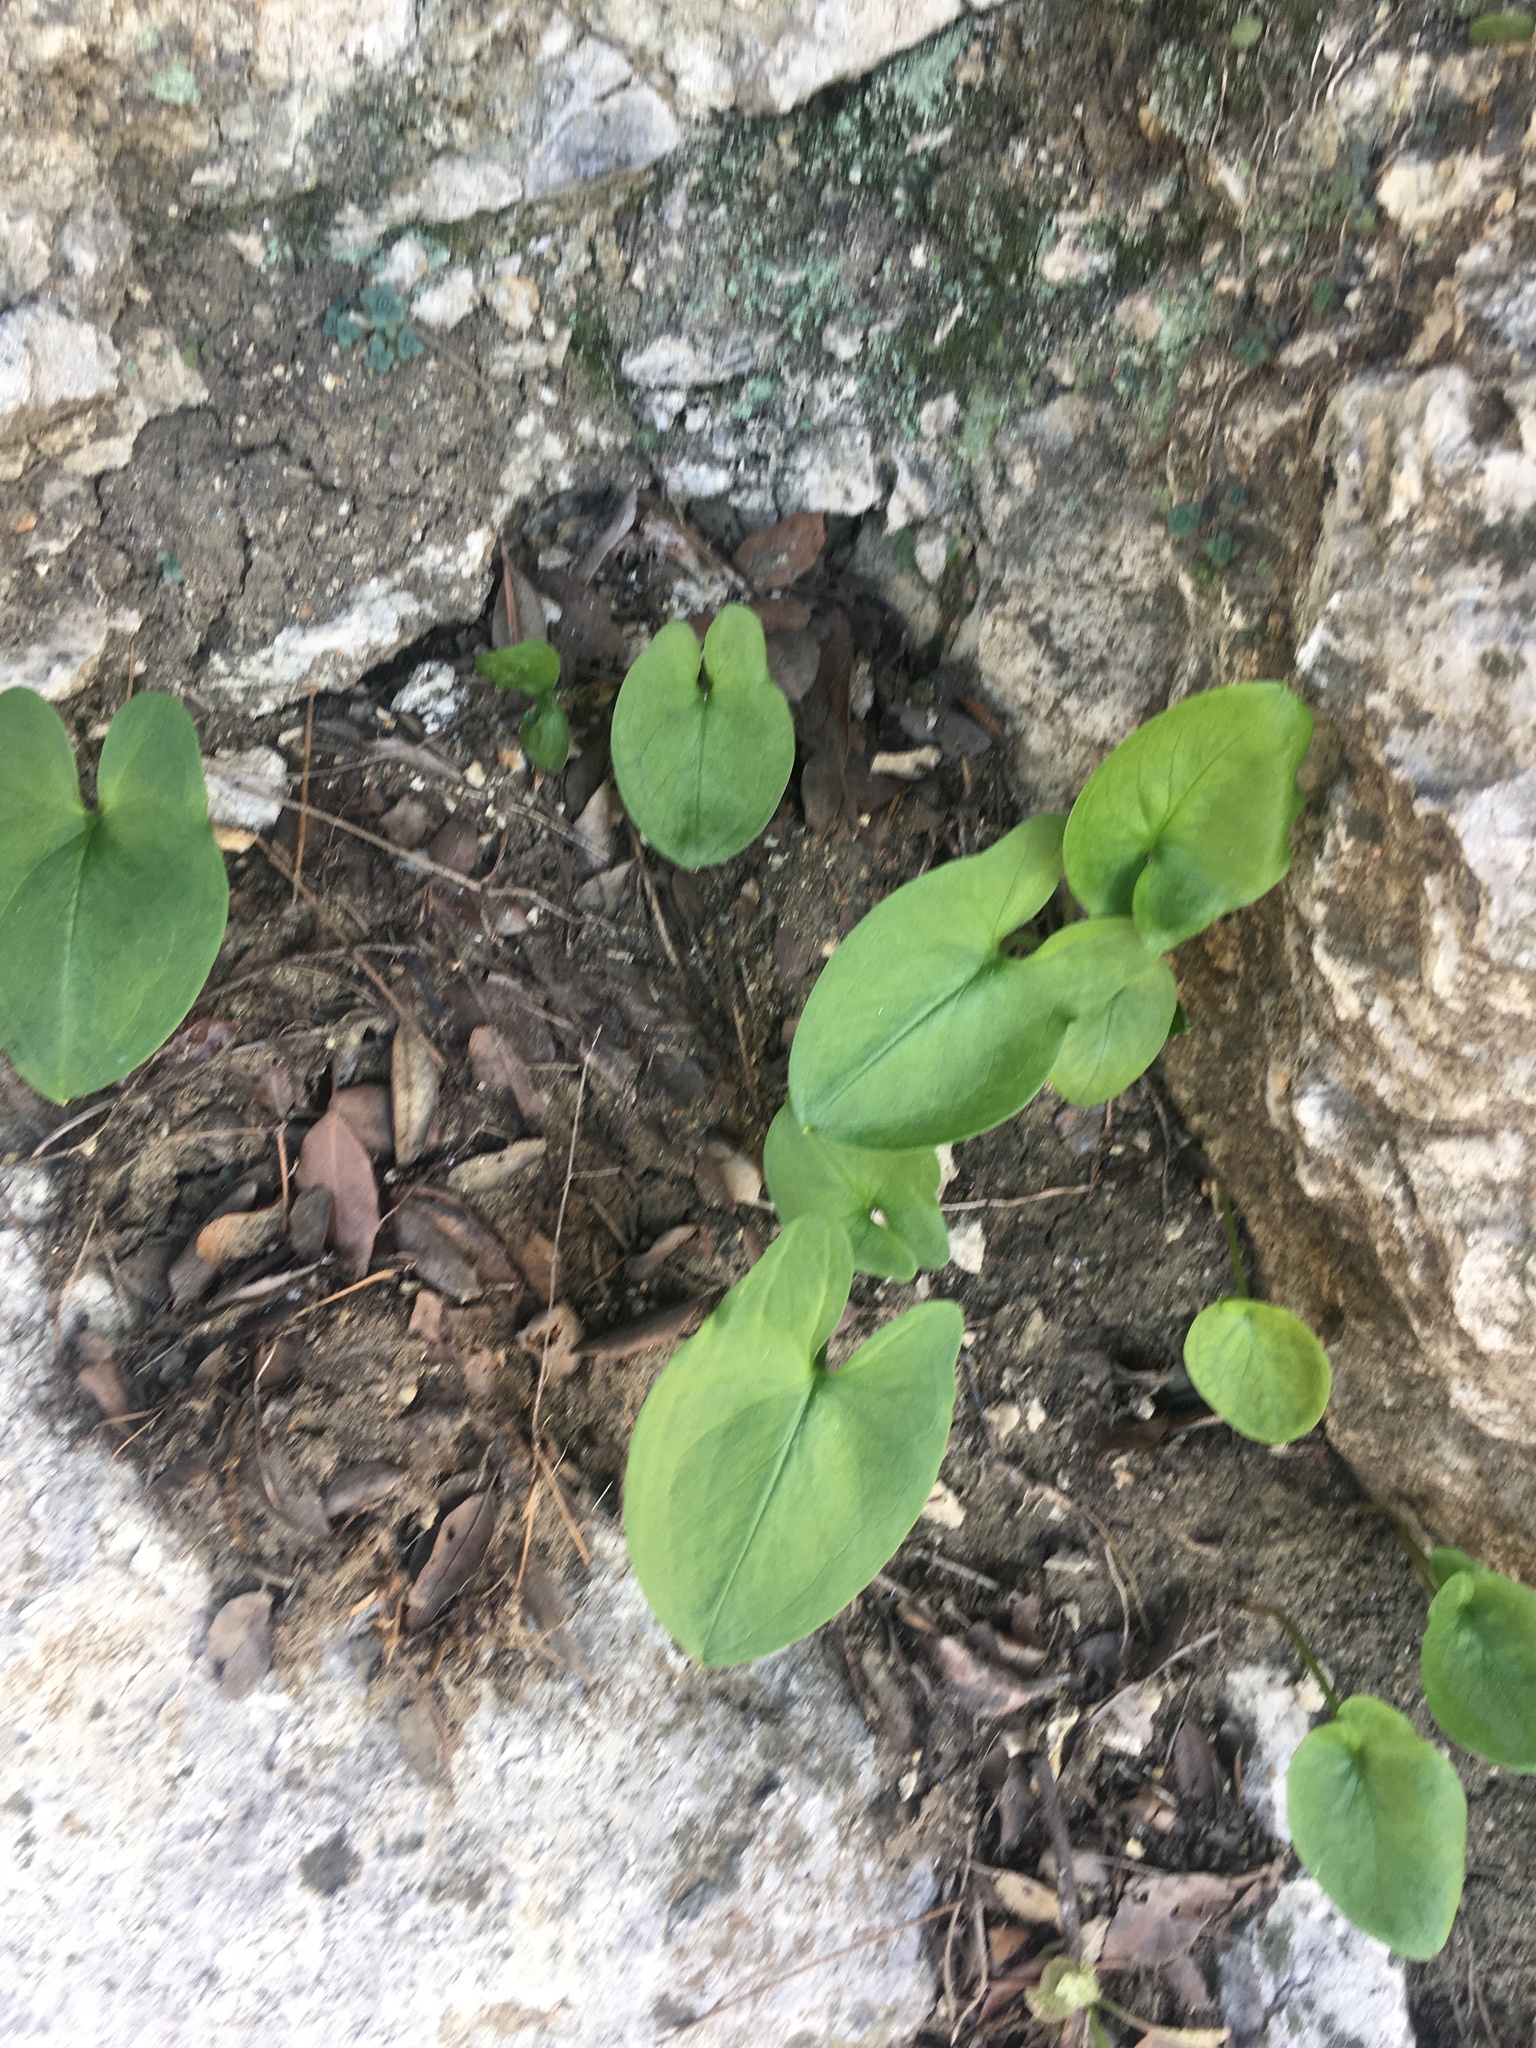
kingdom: Plantae
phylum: Tracheophyta
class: Liliopsida
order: Alismatales
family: Araceae
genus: Arisarum
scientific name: Arisarum vulgare
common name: Common arisarum
